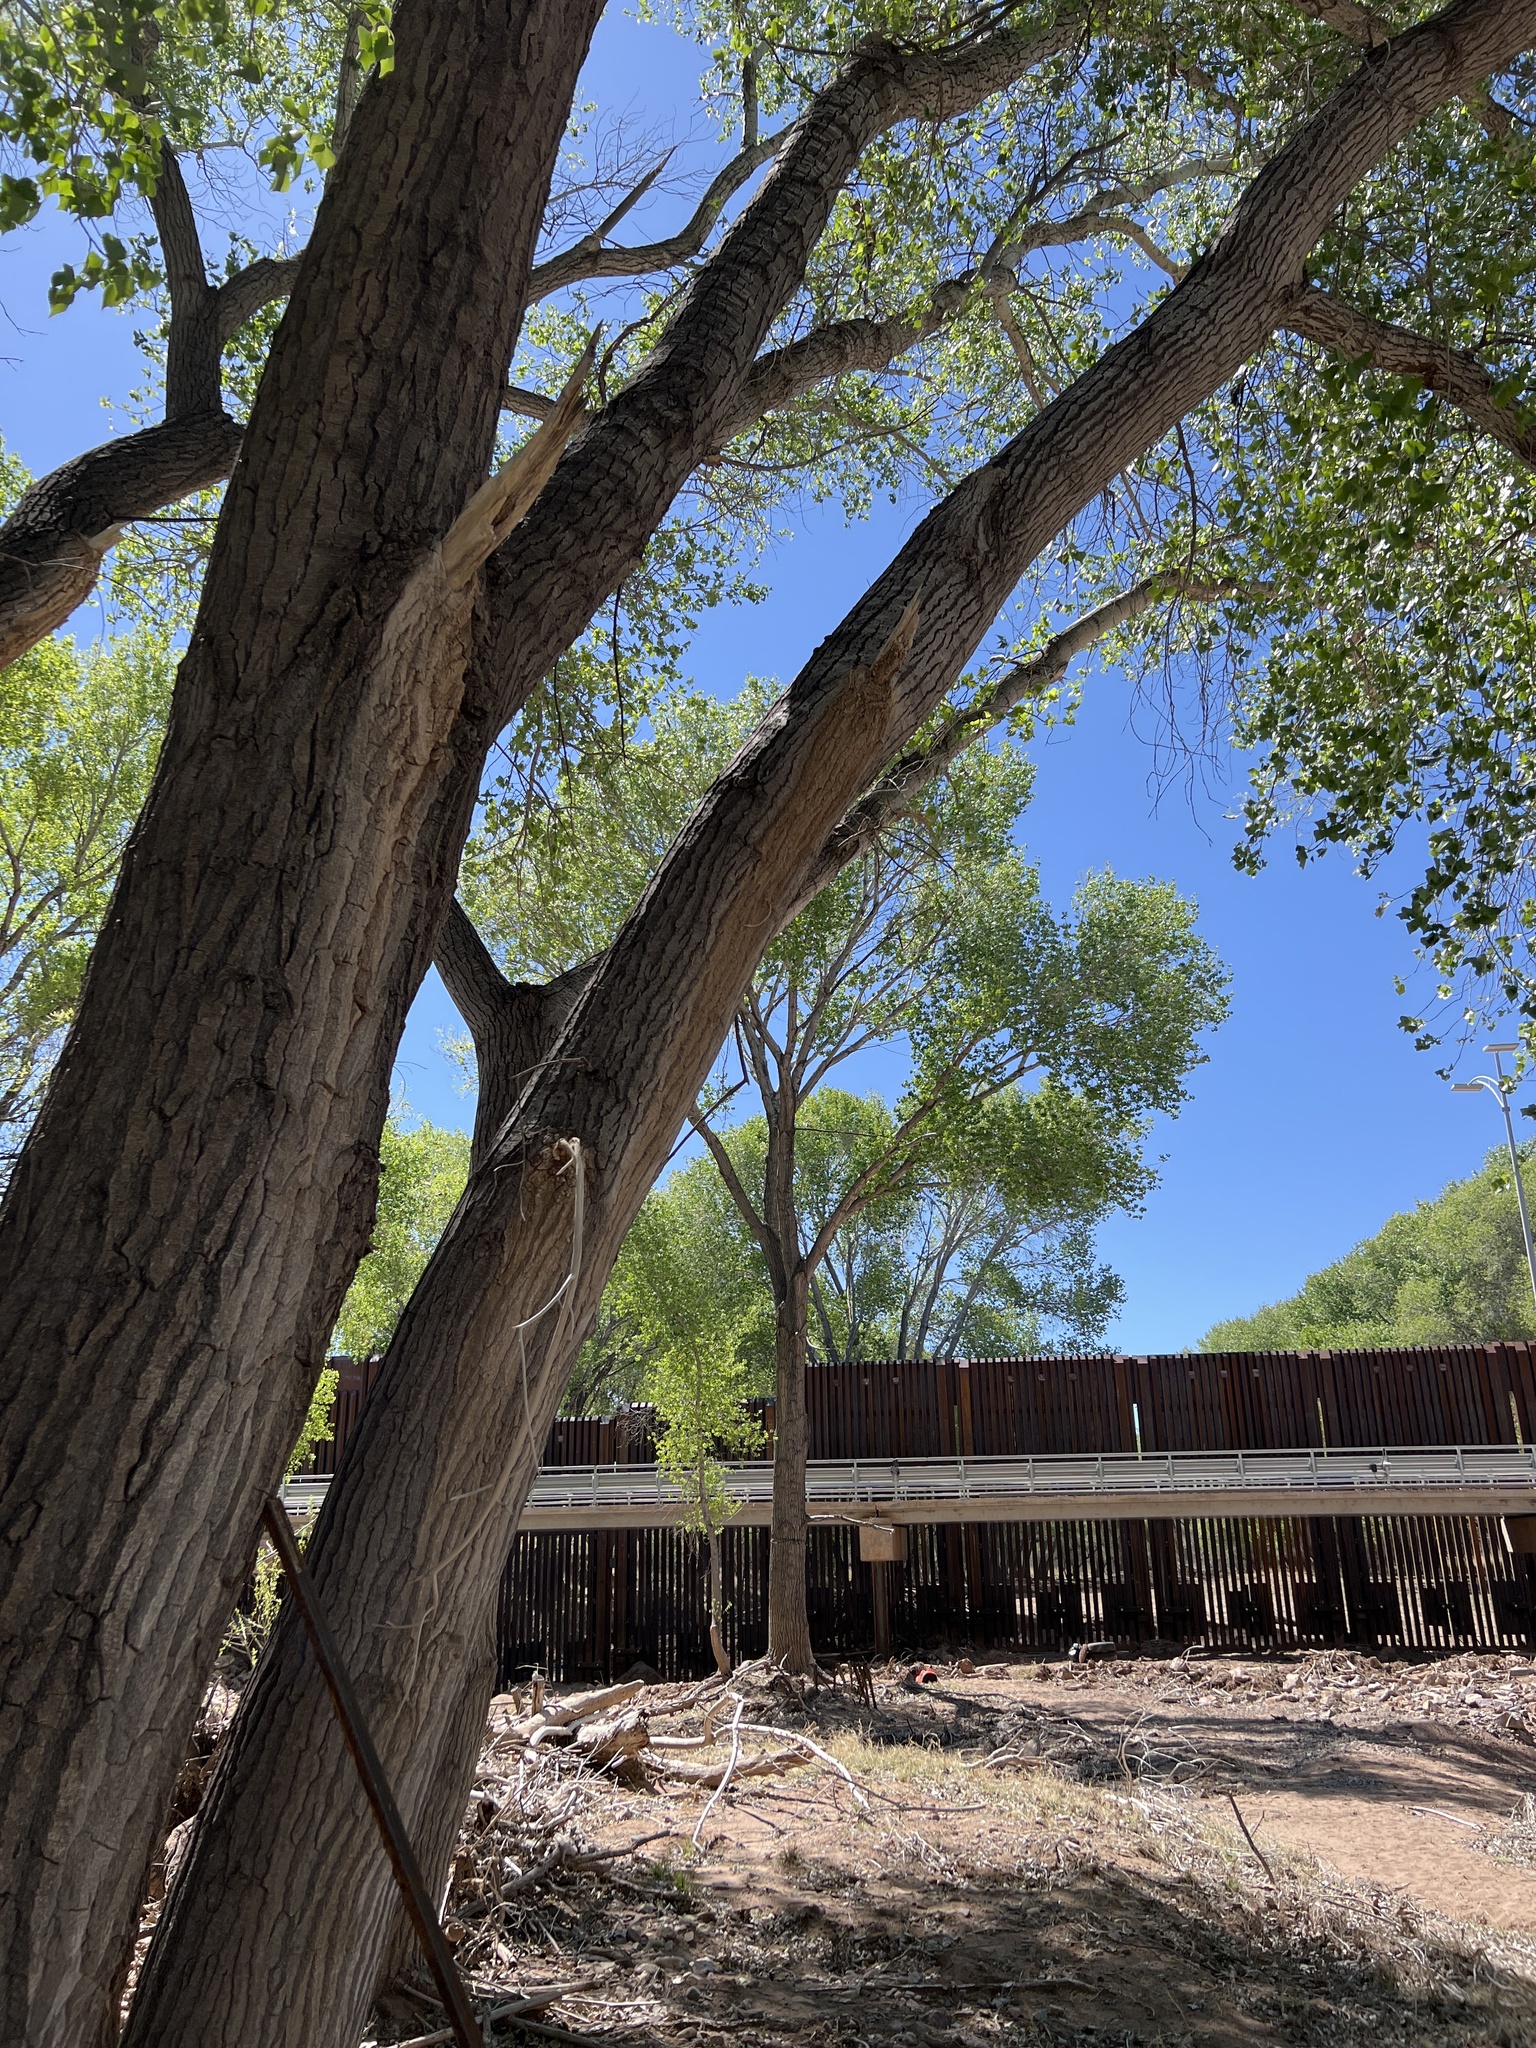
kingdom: Plantae
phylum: Tracheophyta
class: Magnoliopsida
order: Malpighiales
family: Salicaceae
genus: Populus
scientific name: Populus fremontii
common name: Fremont's cottonwood
